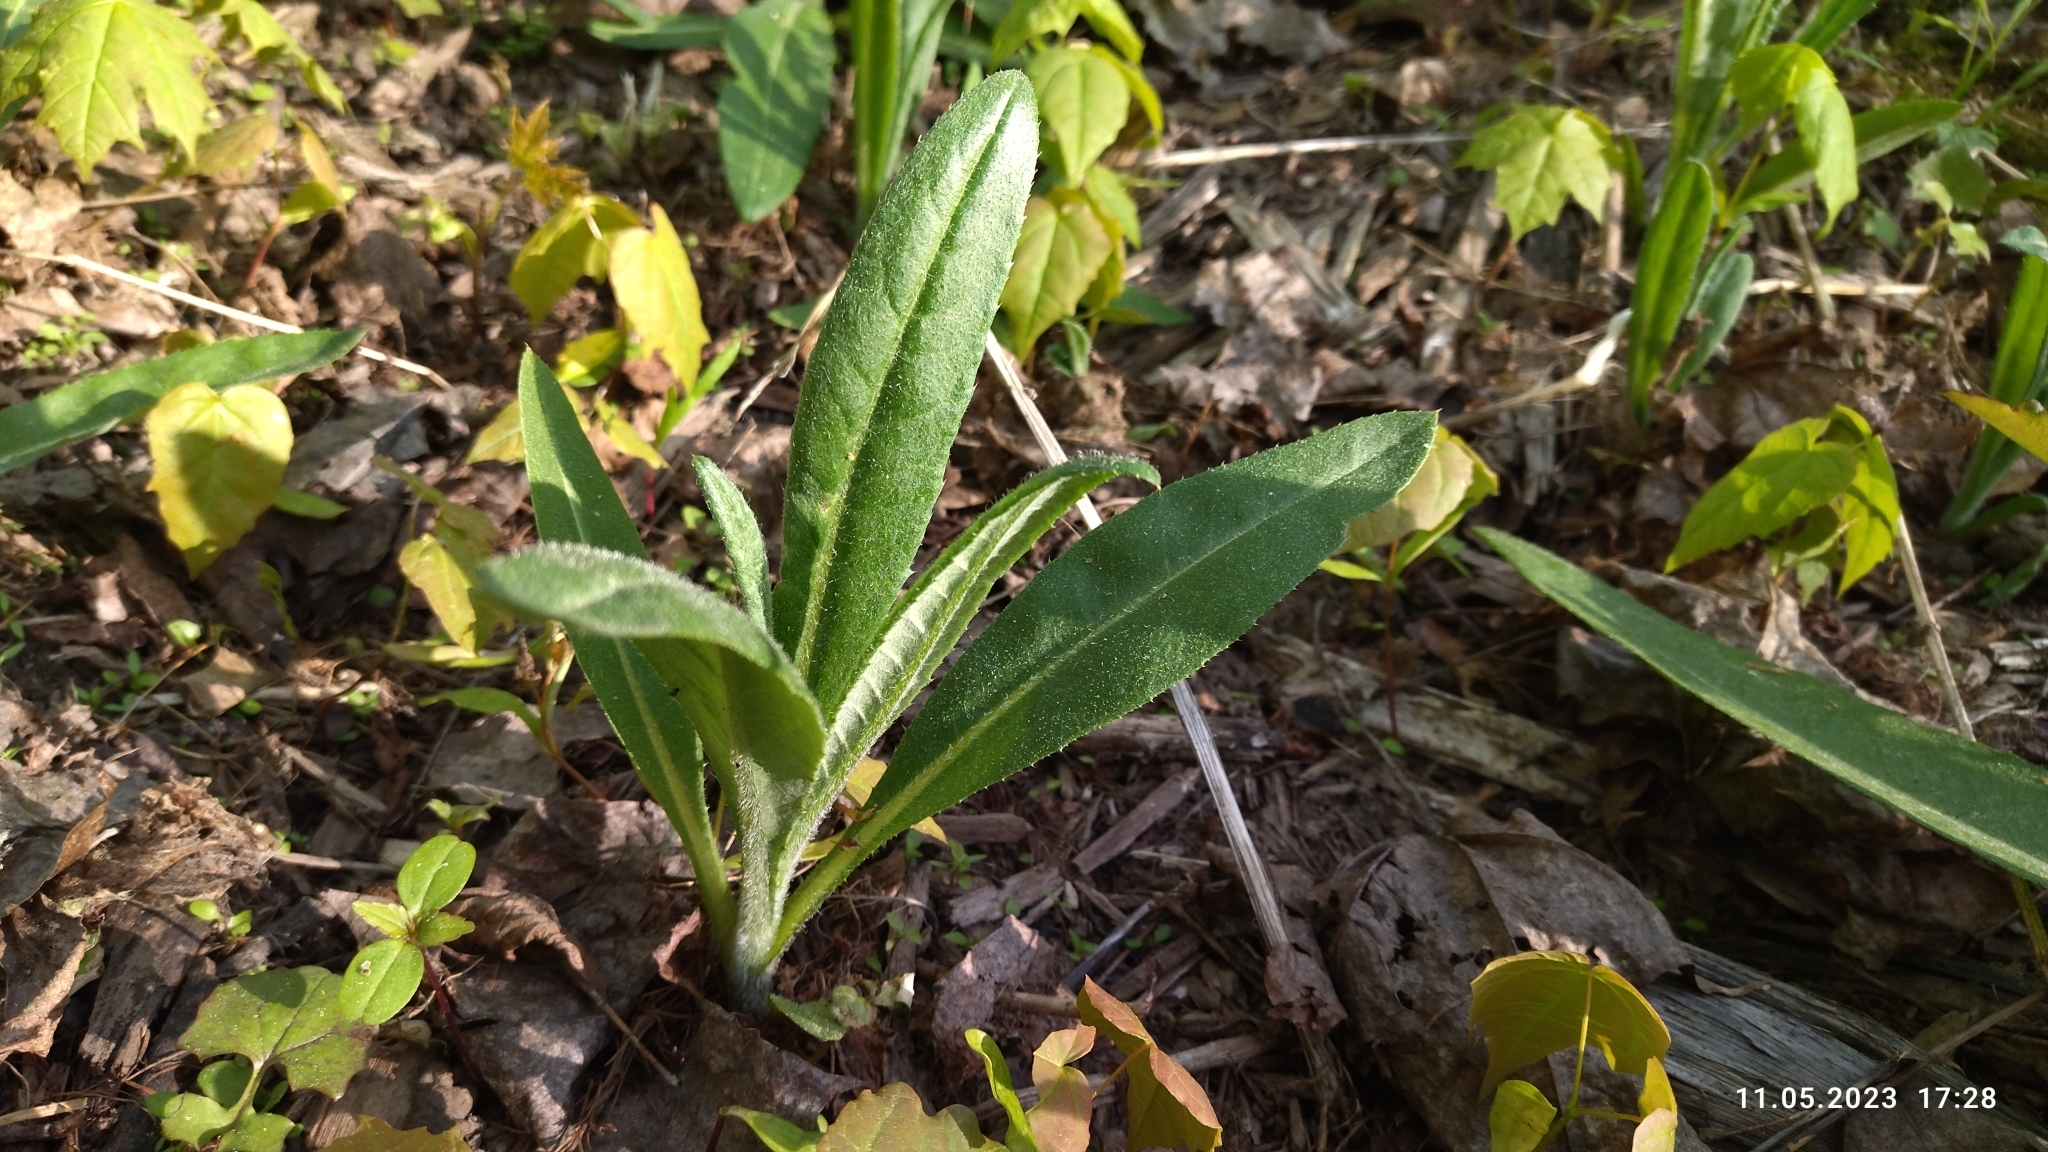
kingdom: Plantae
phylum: Tracheophyta
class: Magnoliopsida
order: Asterales
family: Asteraceae
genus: Cirsium
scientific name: Cirsium arvense
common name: Creeping thistle
